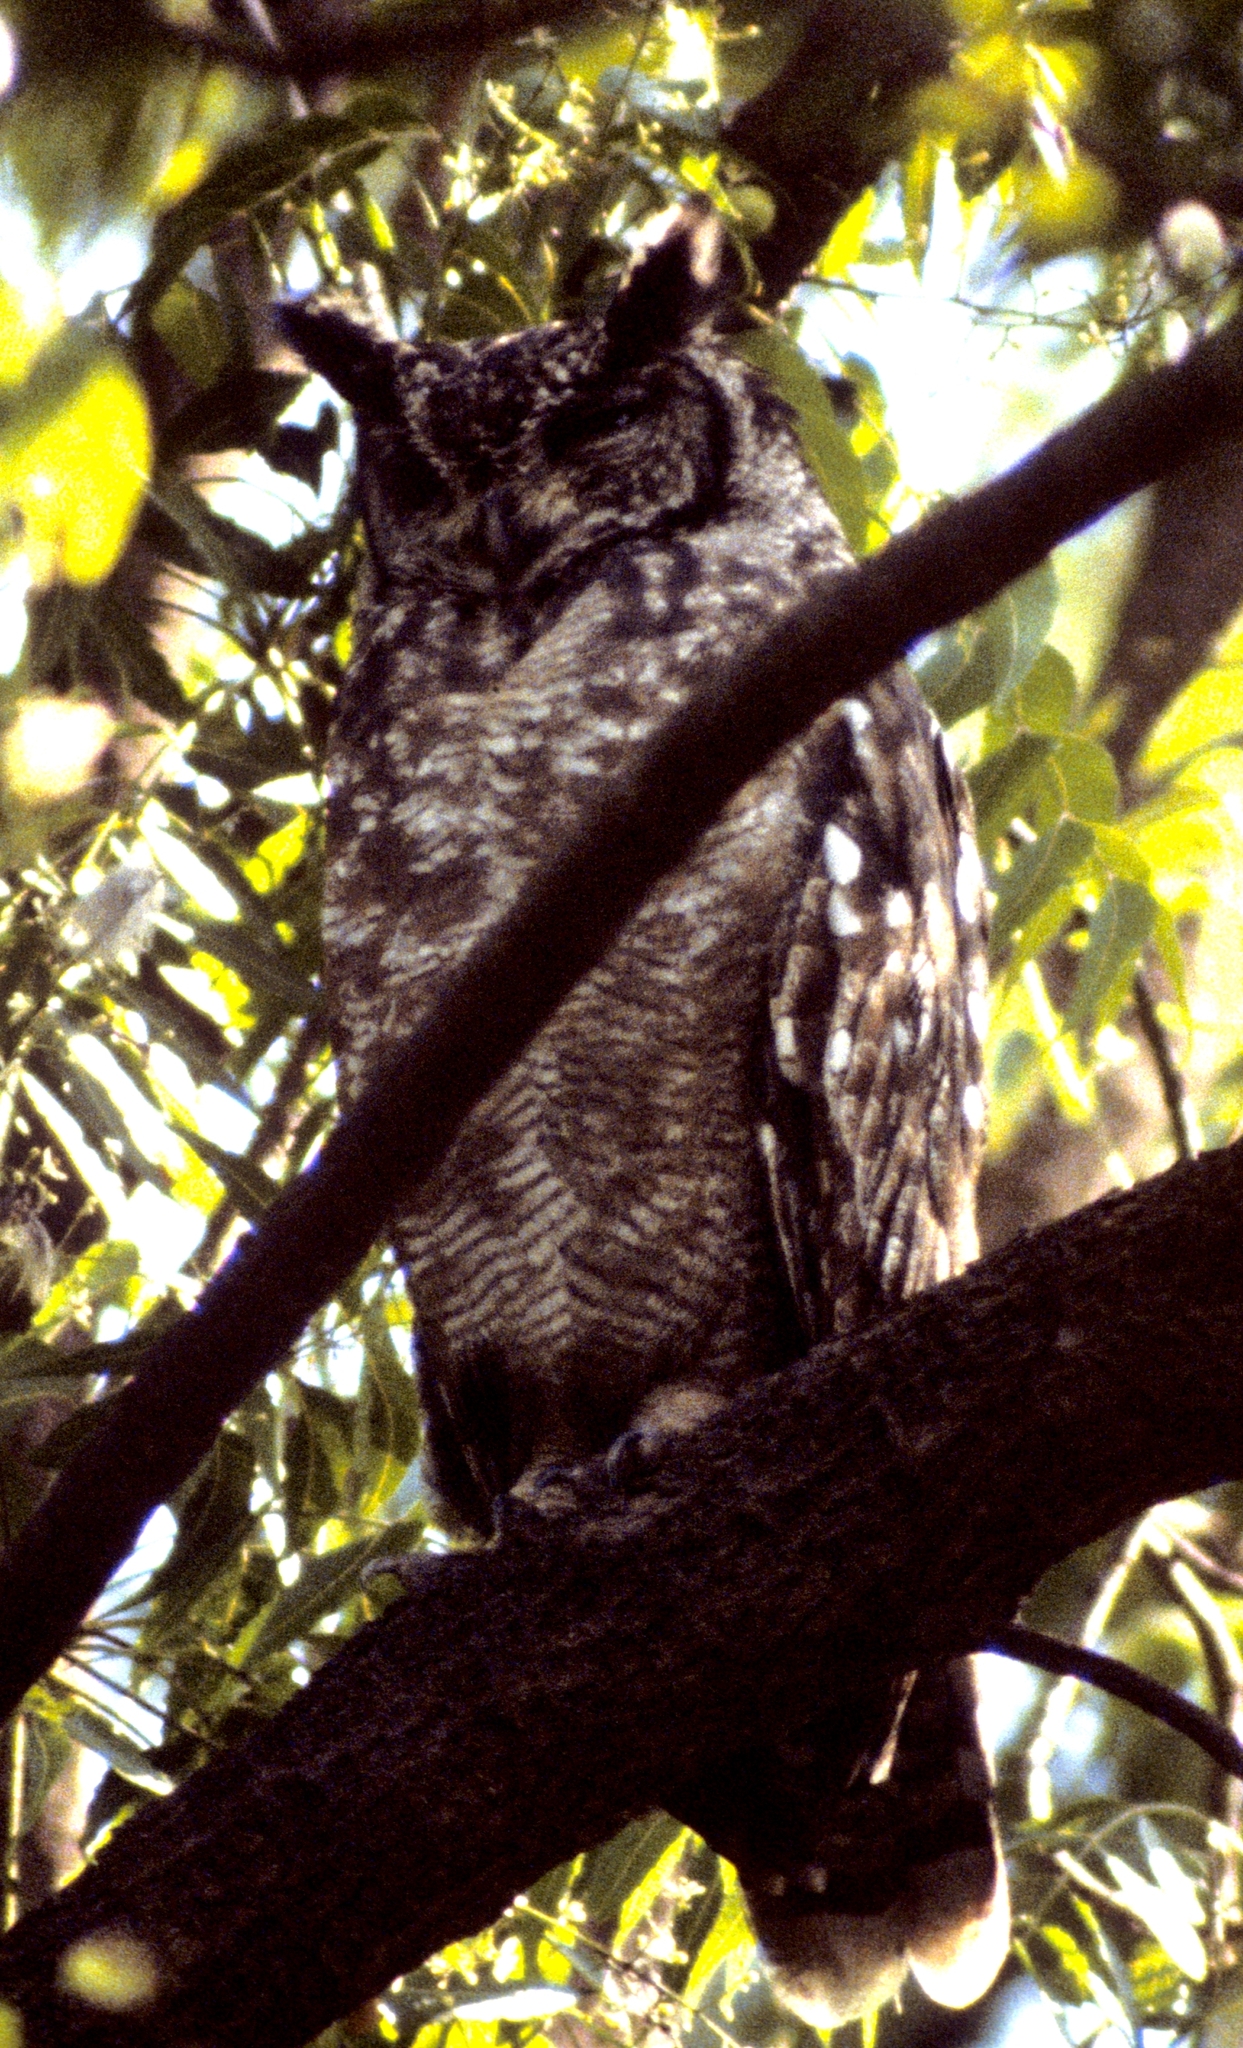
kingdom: Animalia
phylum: Chordata
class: Aves
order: Strigiformes
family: Strigidae
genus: Bubo
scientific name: Bubo cinerascens
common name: Greyish eagle-owl
